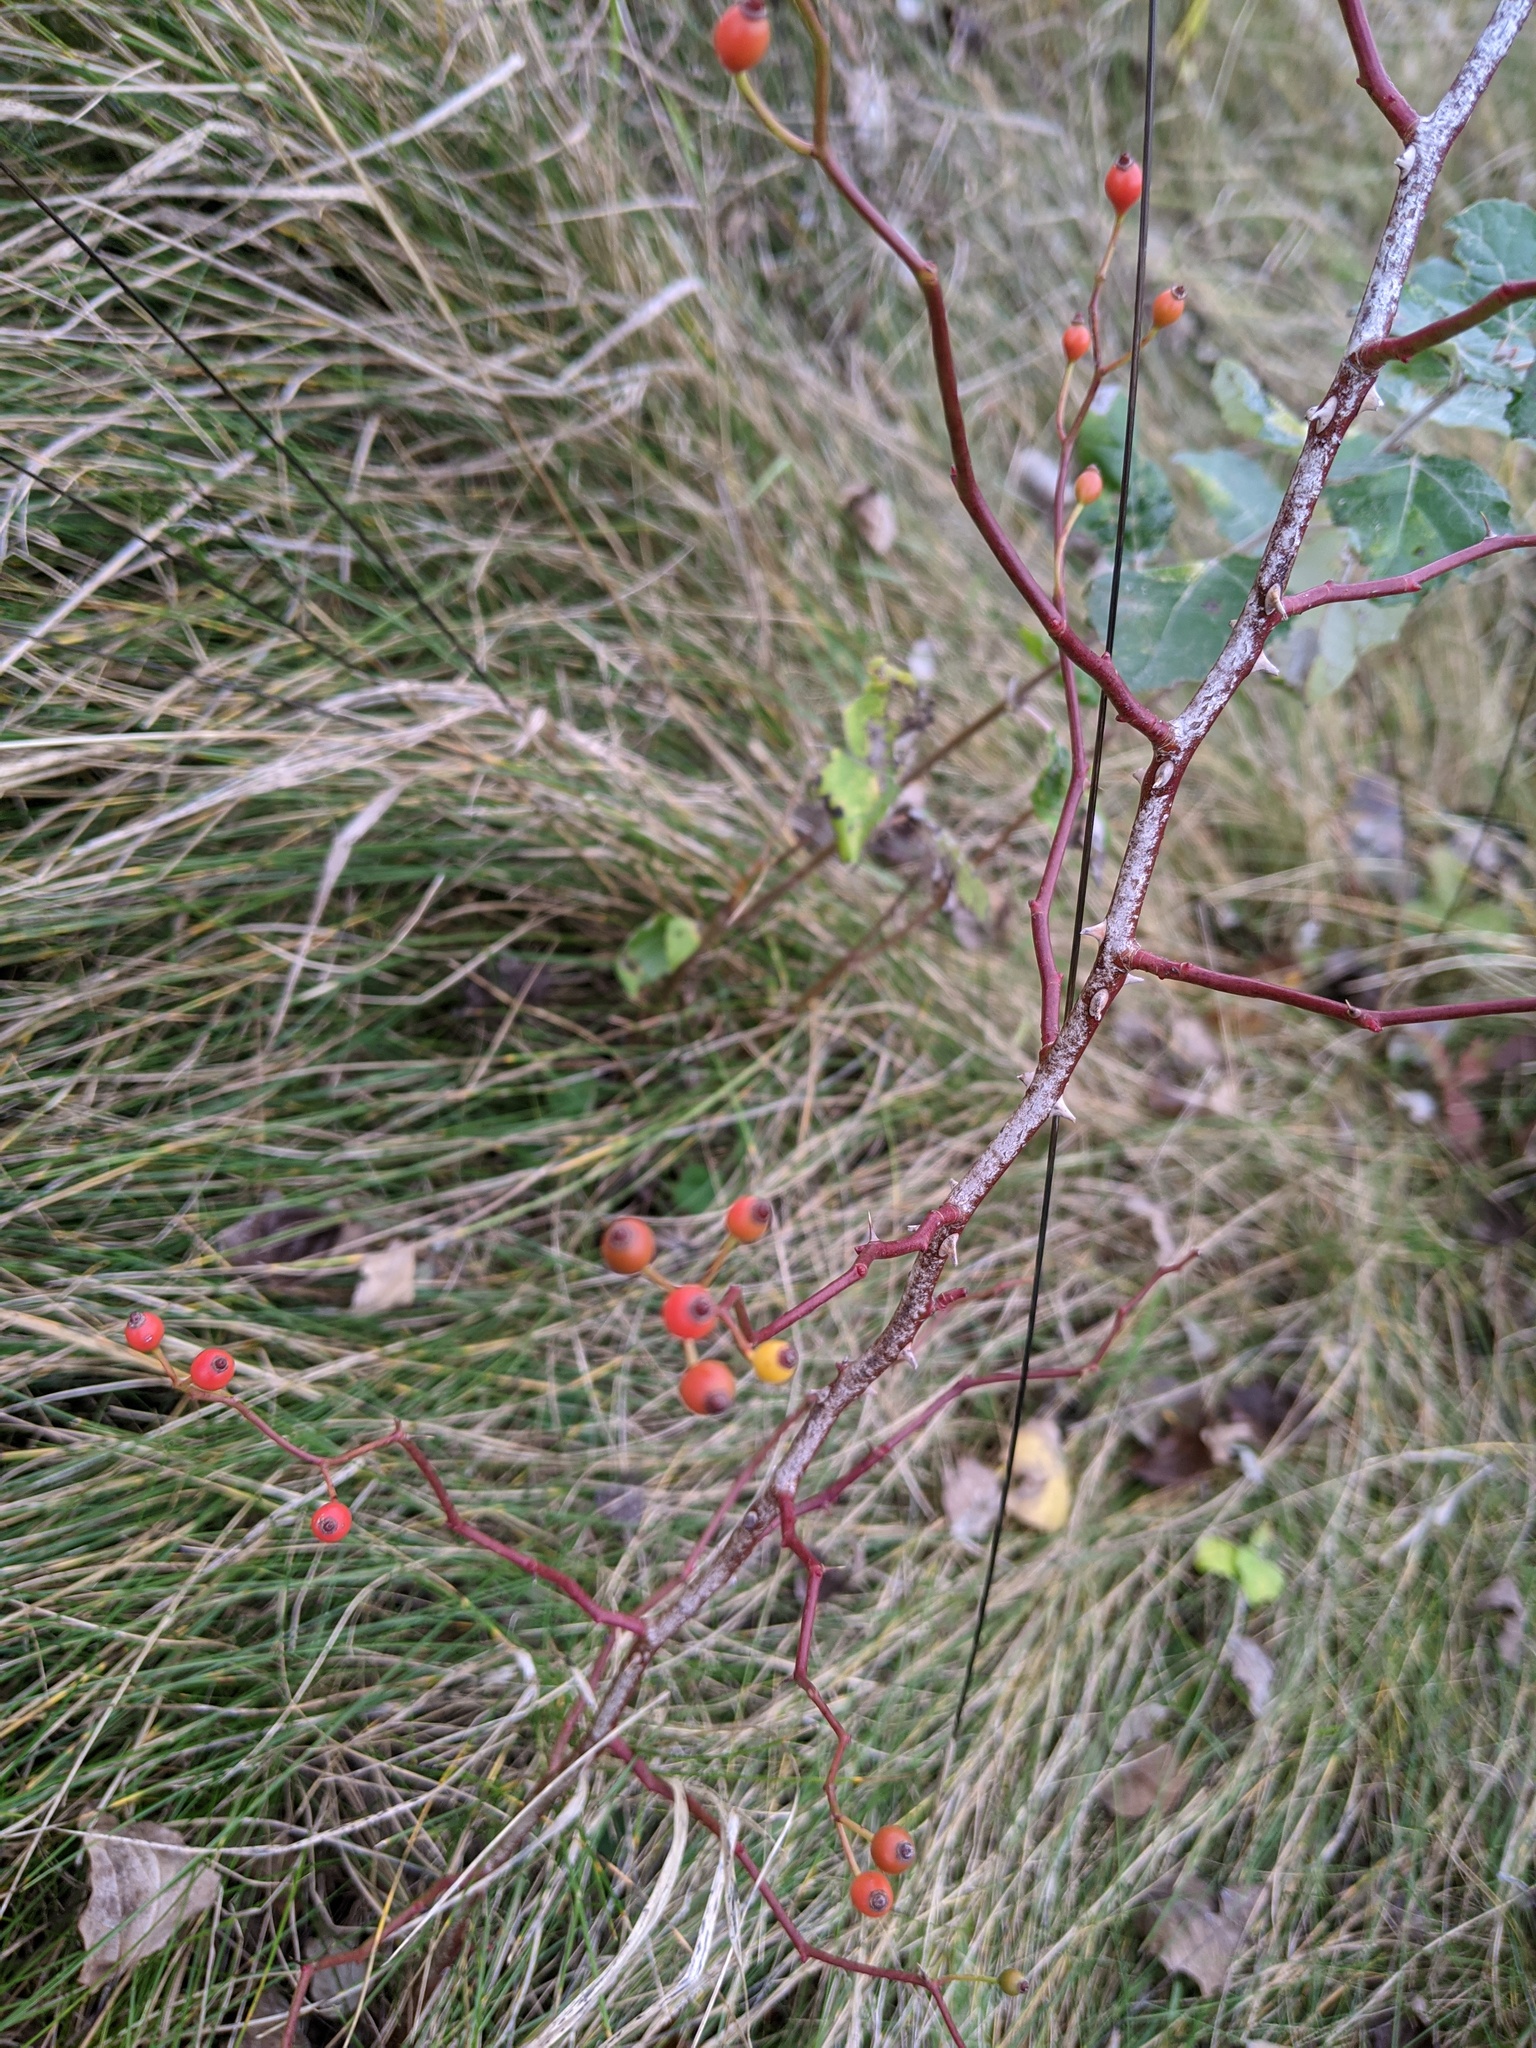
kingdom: Plantae
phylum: Tracheophyta
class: Magnoliopsida
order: Rosales
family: Rosaceae
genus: Rosa
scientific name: Rosa multiflora
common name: Multiflora rose
